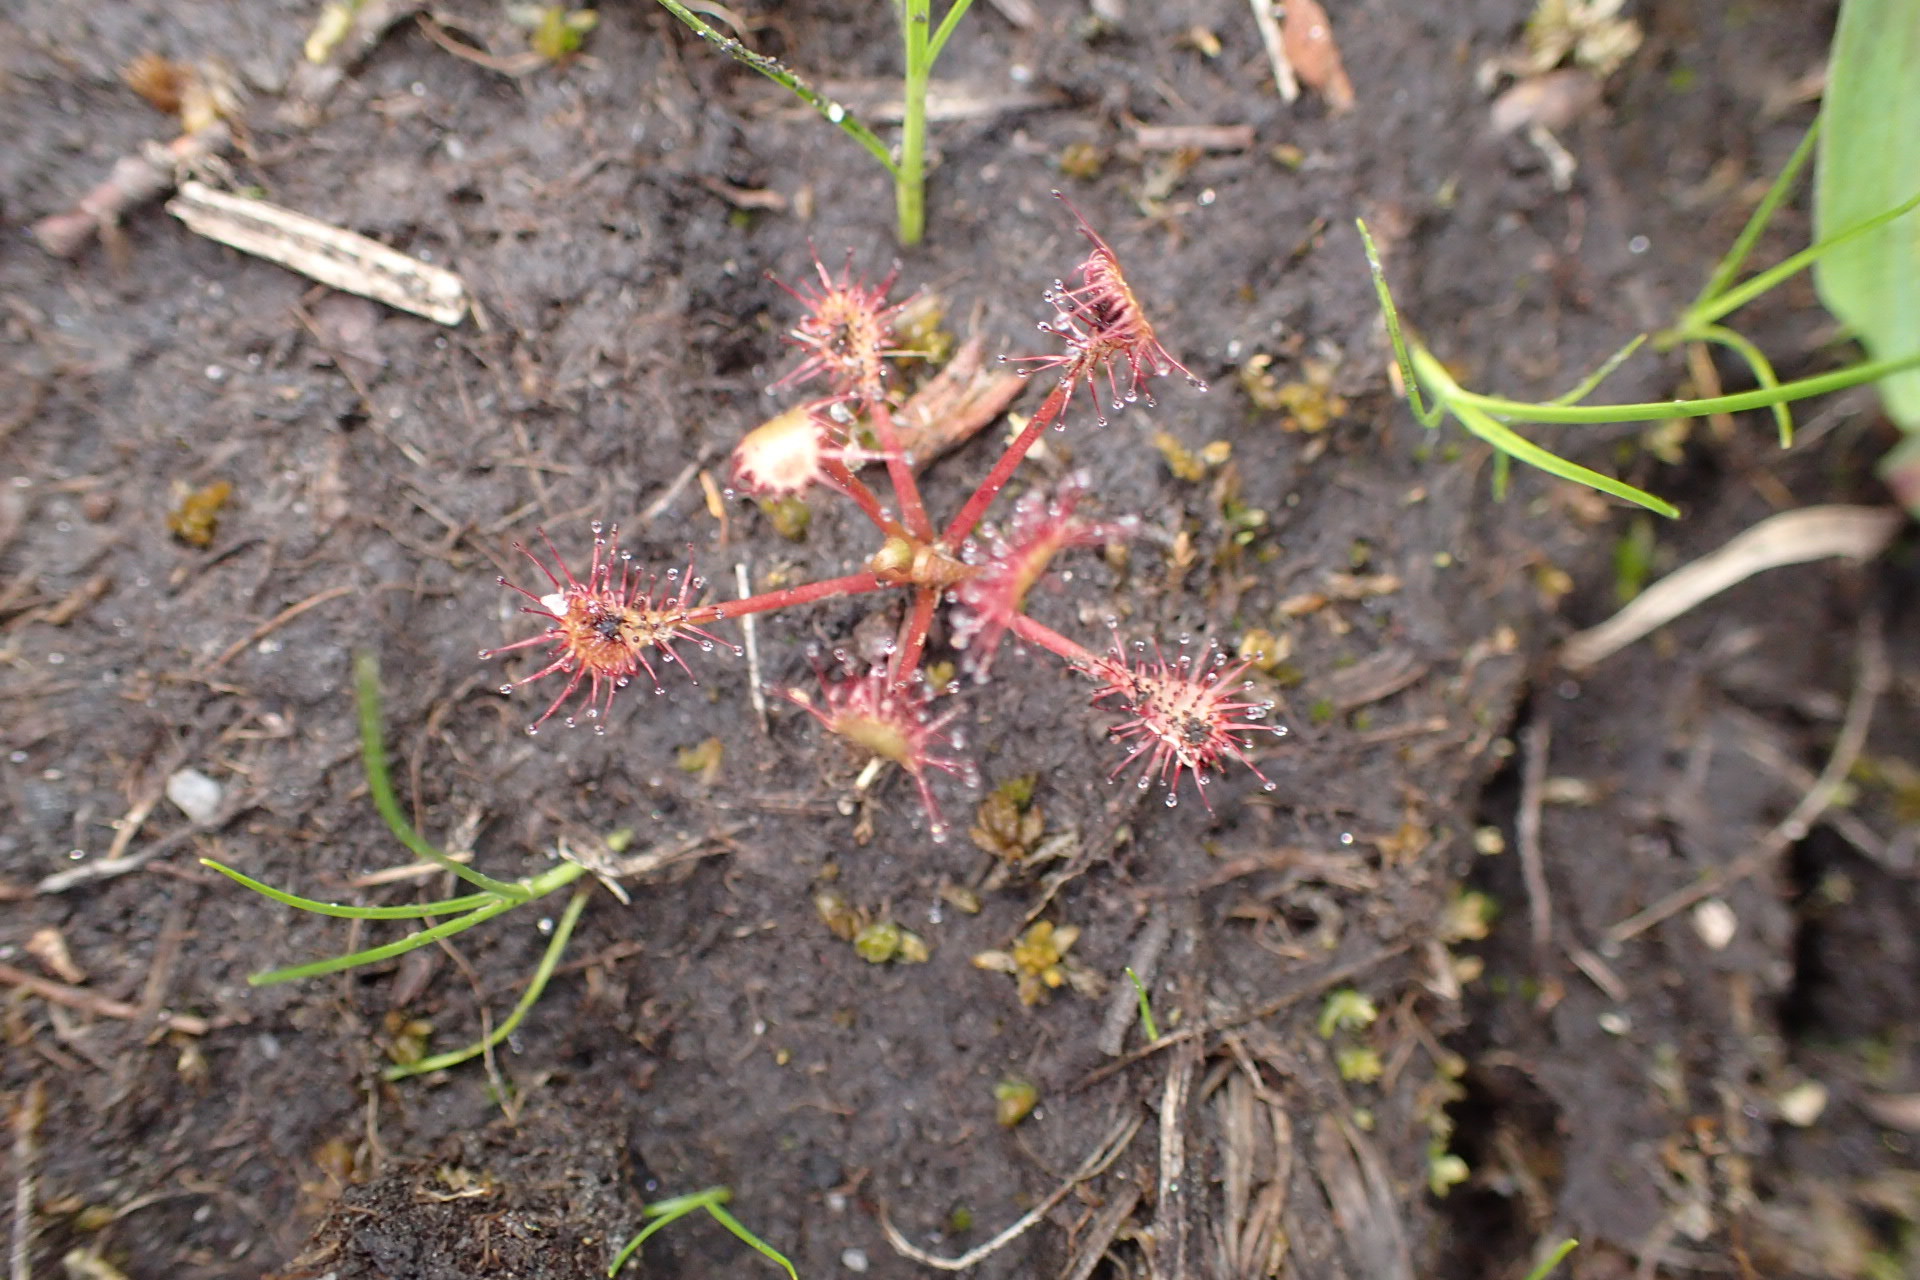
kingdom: Plantae
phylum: Tracheophyta
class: Magnoliopsida
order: Caryophyllales
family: Droseraceae
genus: Drosera
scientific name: Drosera intermedia
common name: Oblong-leaved sundew
